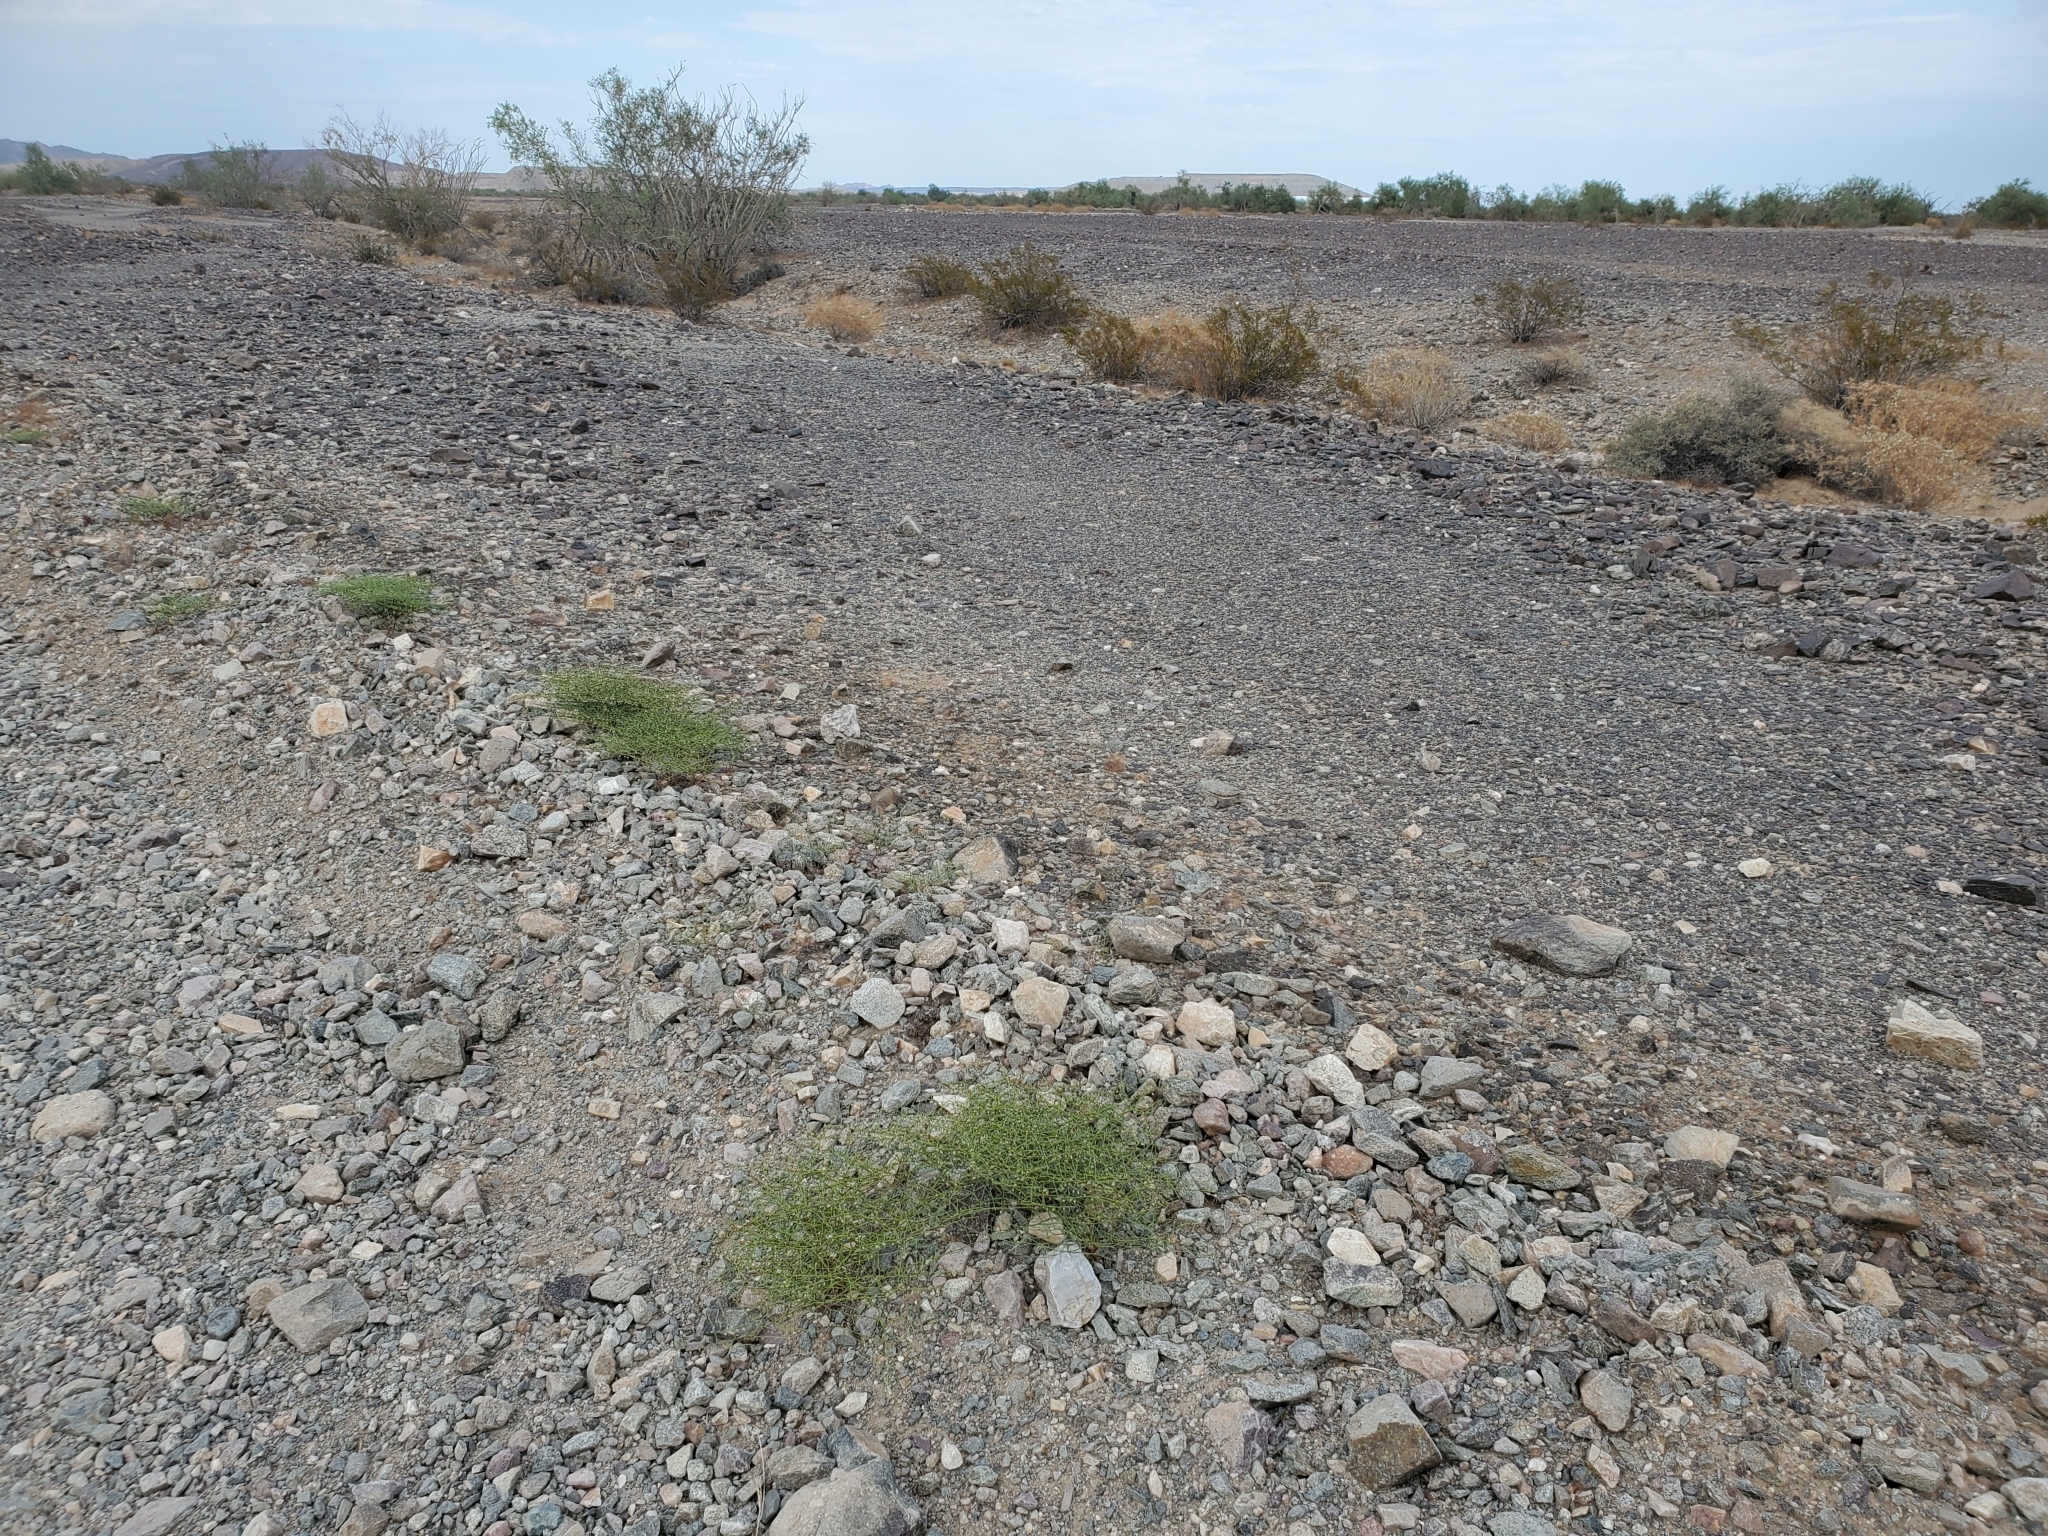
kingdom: Plantae
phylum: Tracheophyta
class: Magnoliopsida
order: Caryophyllales
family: Polygonaceae
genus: Eriogonum
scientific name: Eriogonum deflexum
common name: Skeleton-weed
